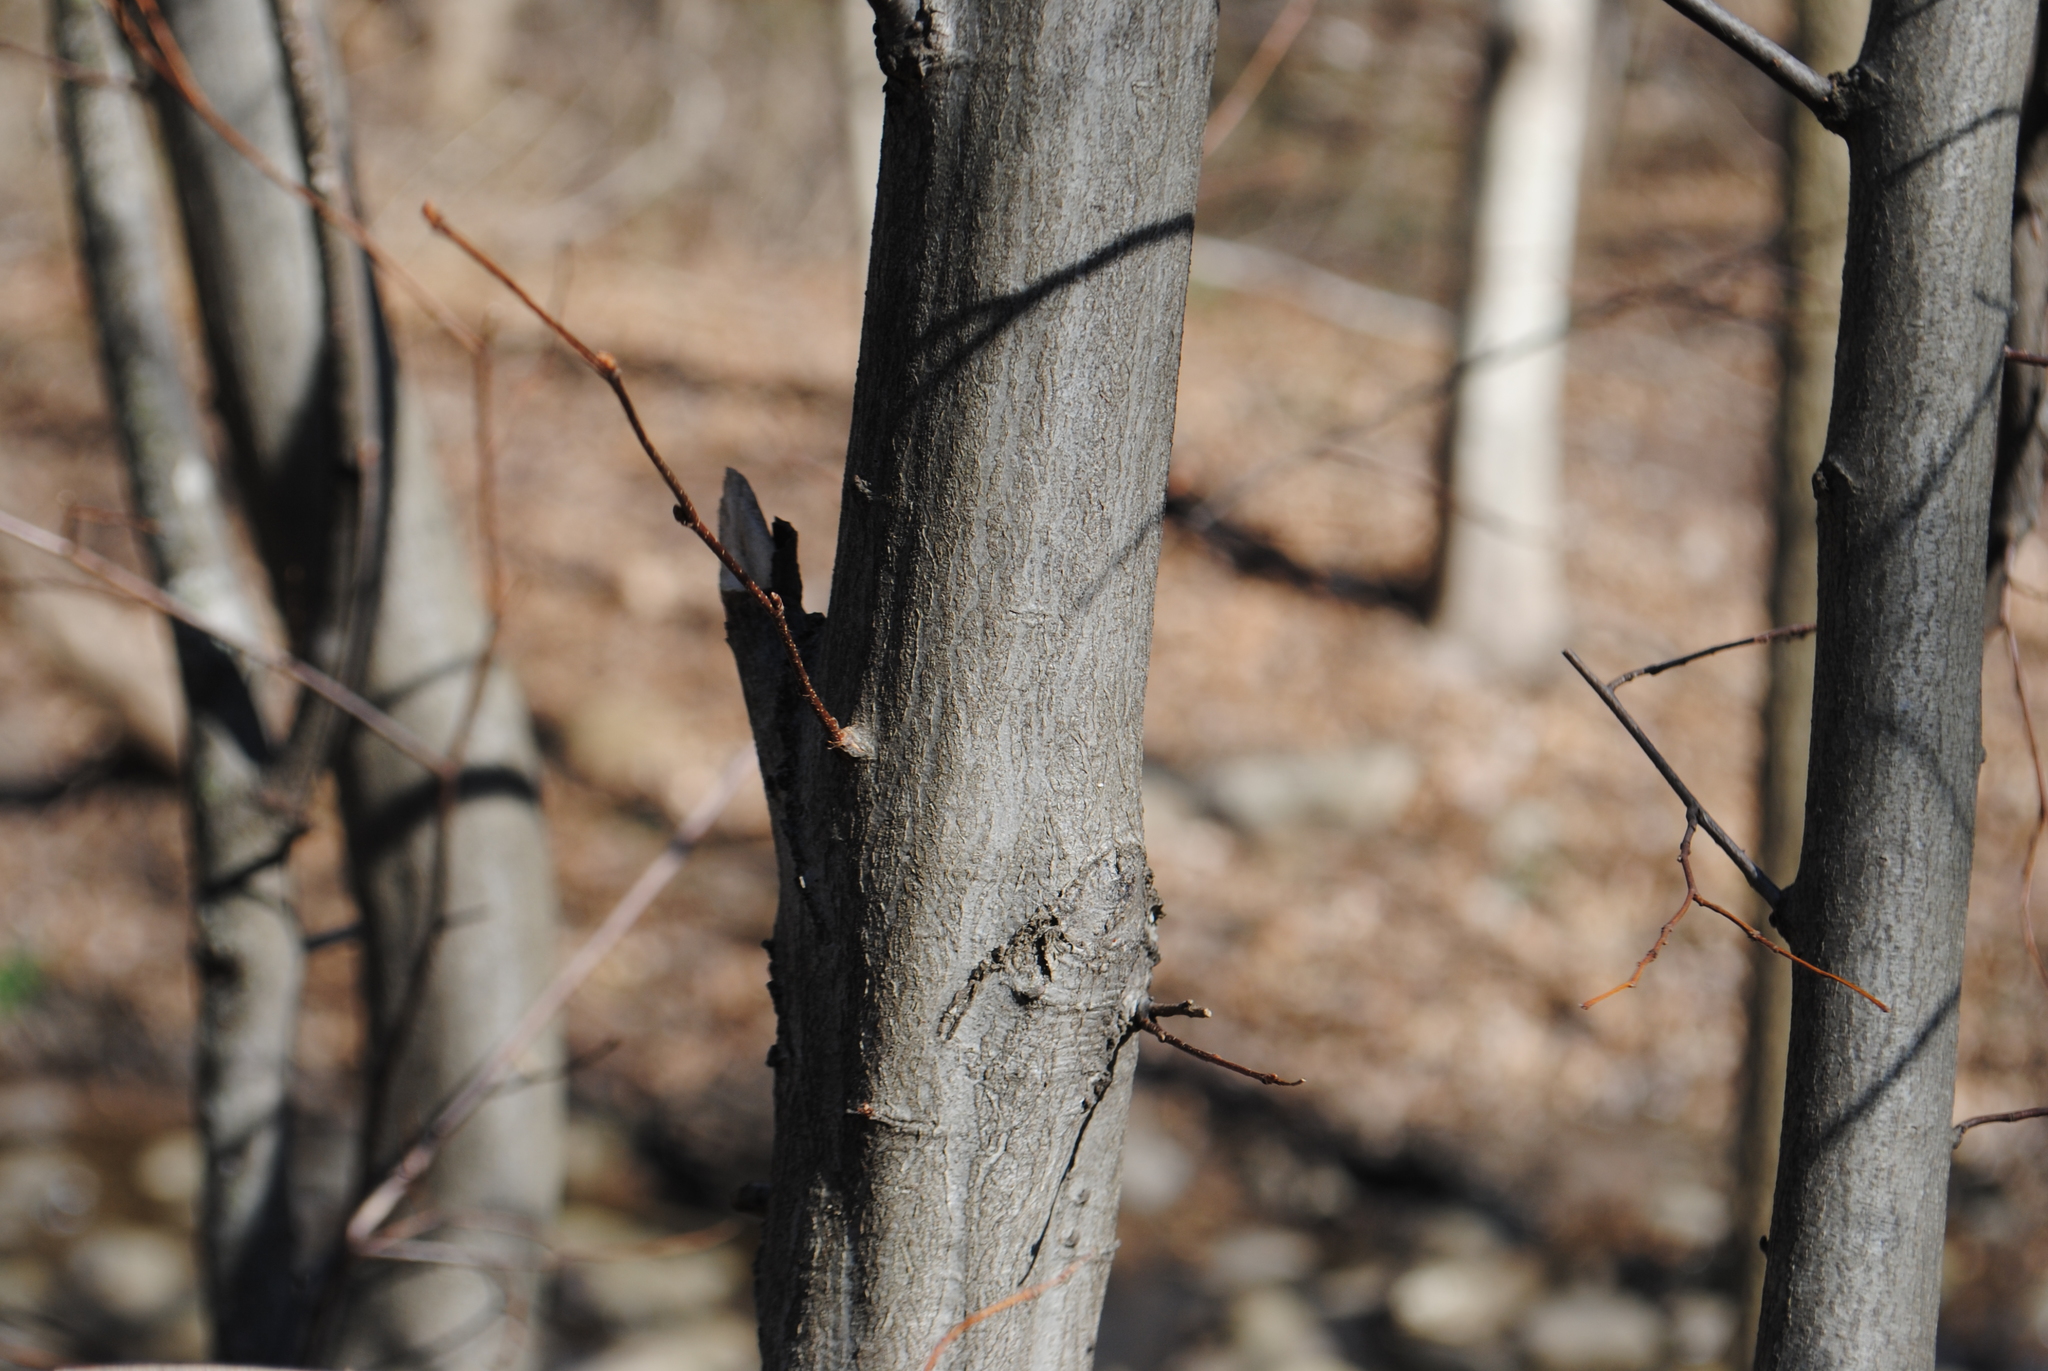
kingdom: Plantae
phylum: Tracheophyta
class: Magnoliopsida
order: Fagales
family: Betulaceae
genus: Carpinus
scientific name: Carpinus caroliniana
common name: American hornbeam
